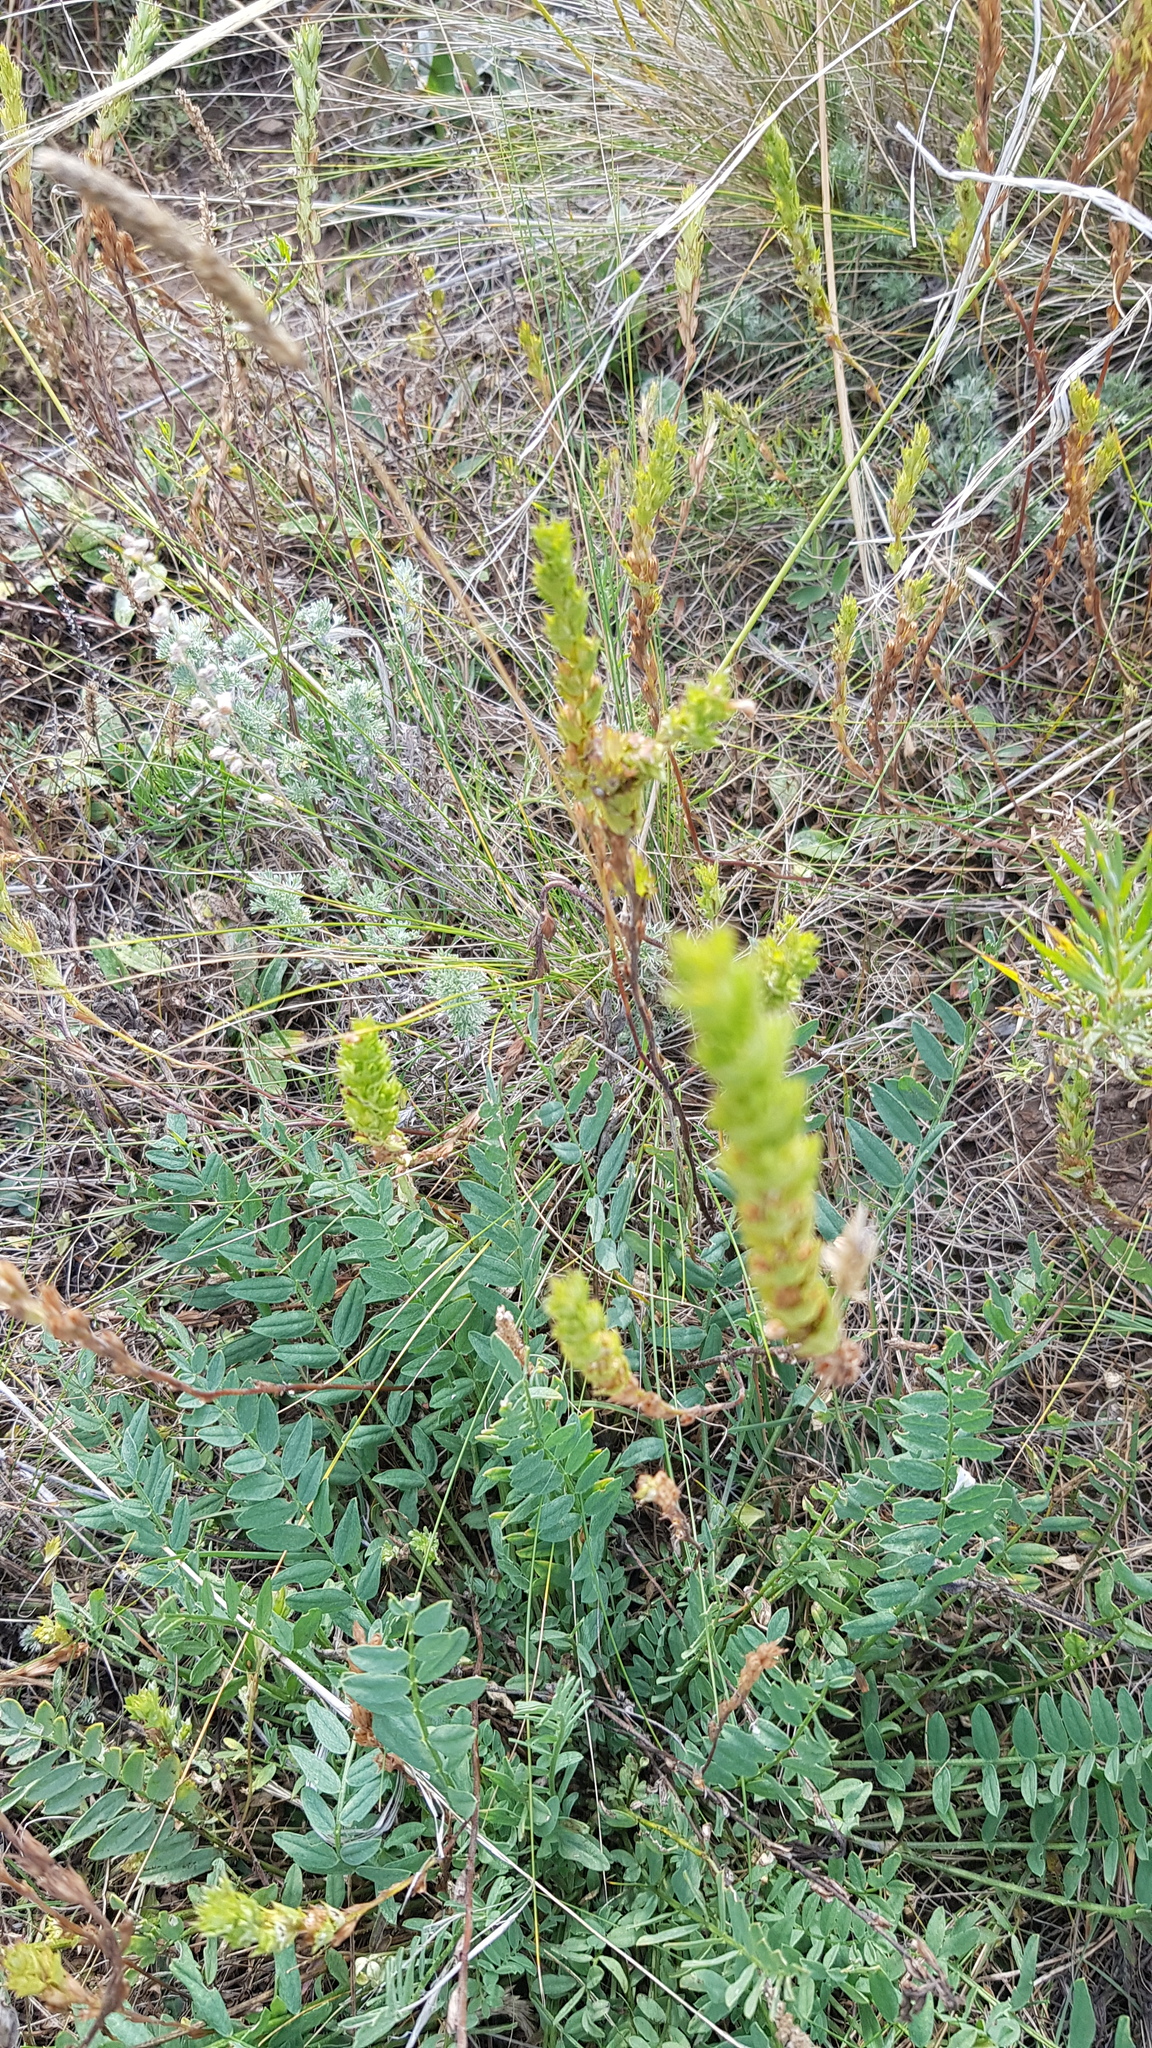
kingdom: Plantae
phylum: Tracheophyta
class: Magnoliopsida
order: Fabales
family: Fabaceae
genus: Astragalus
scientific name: Astragalus laxmannii
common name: Laxmann's milk-vetch
